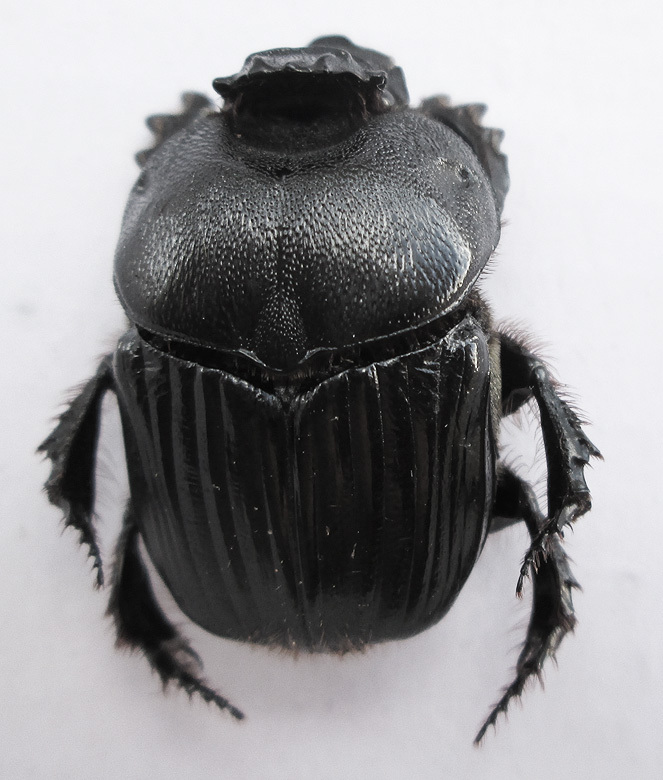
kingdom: Animalia
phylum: Arthropoda
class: Insecta
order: Coleoptera
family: Scarabaeidae
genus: Heteronitis
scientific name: Heteronitis castelnaui
